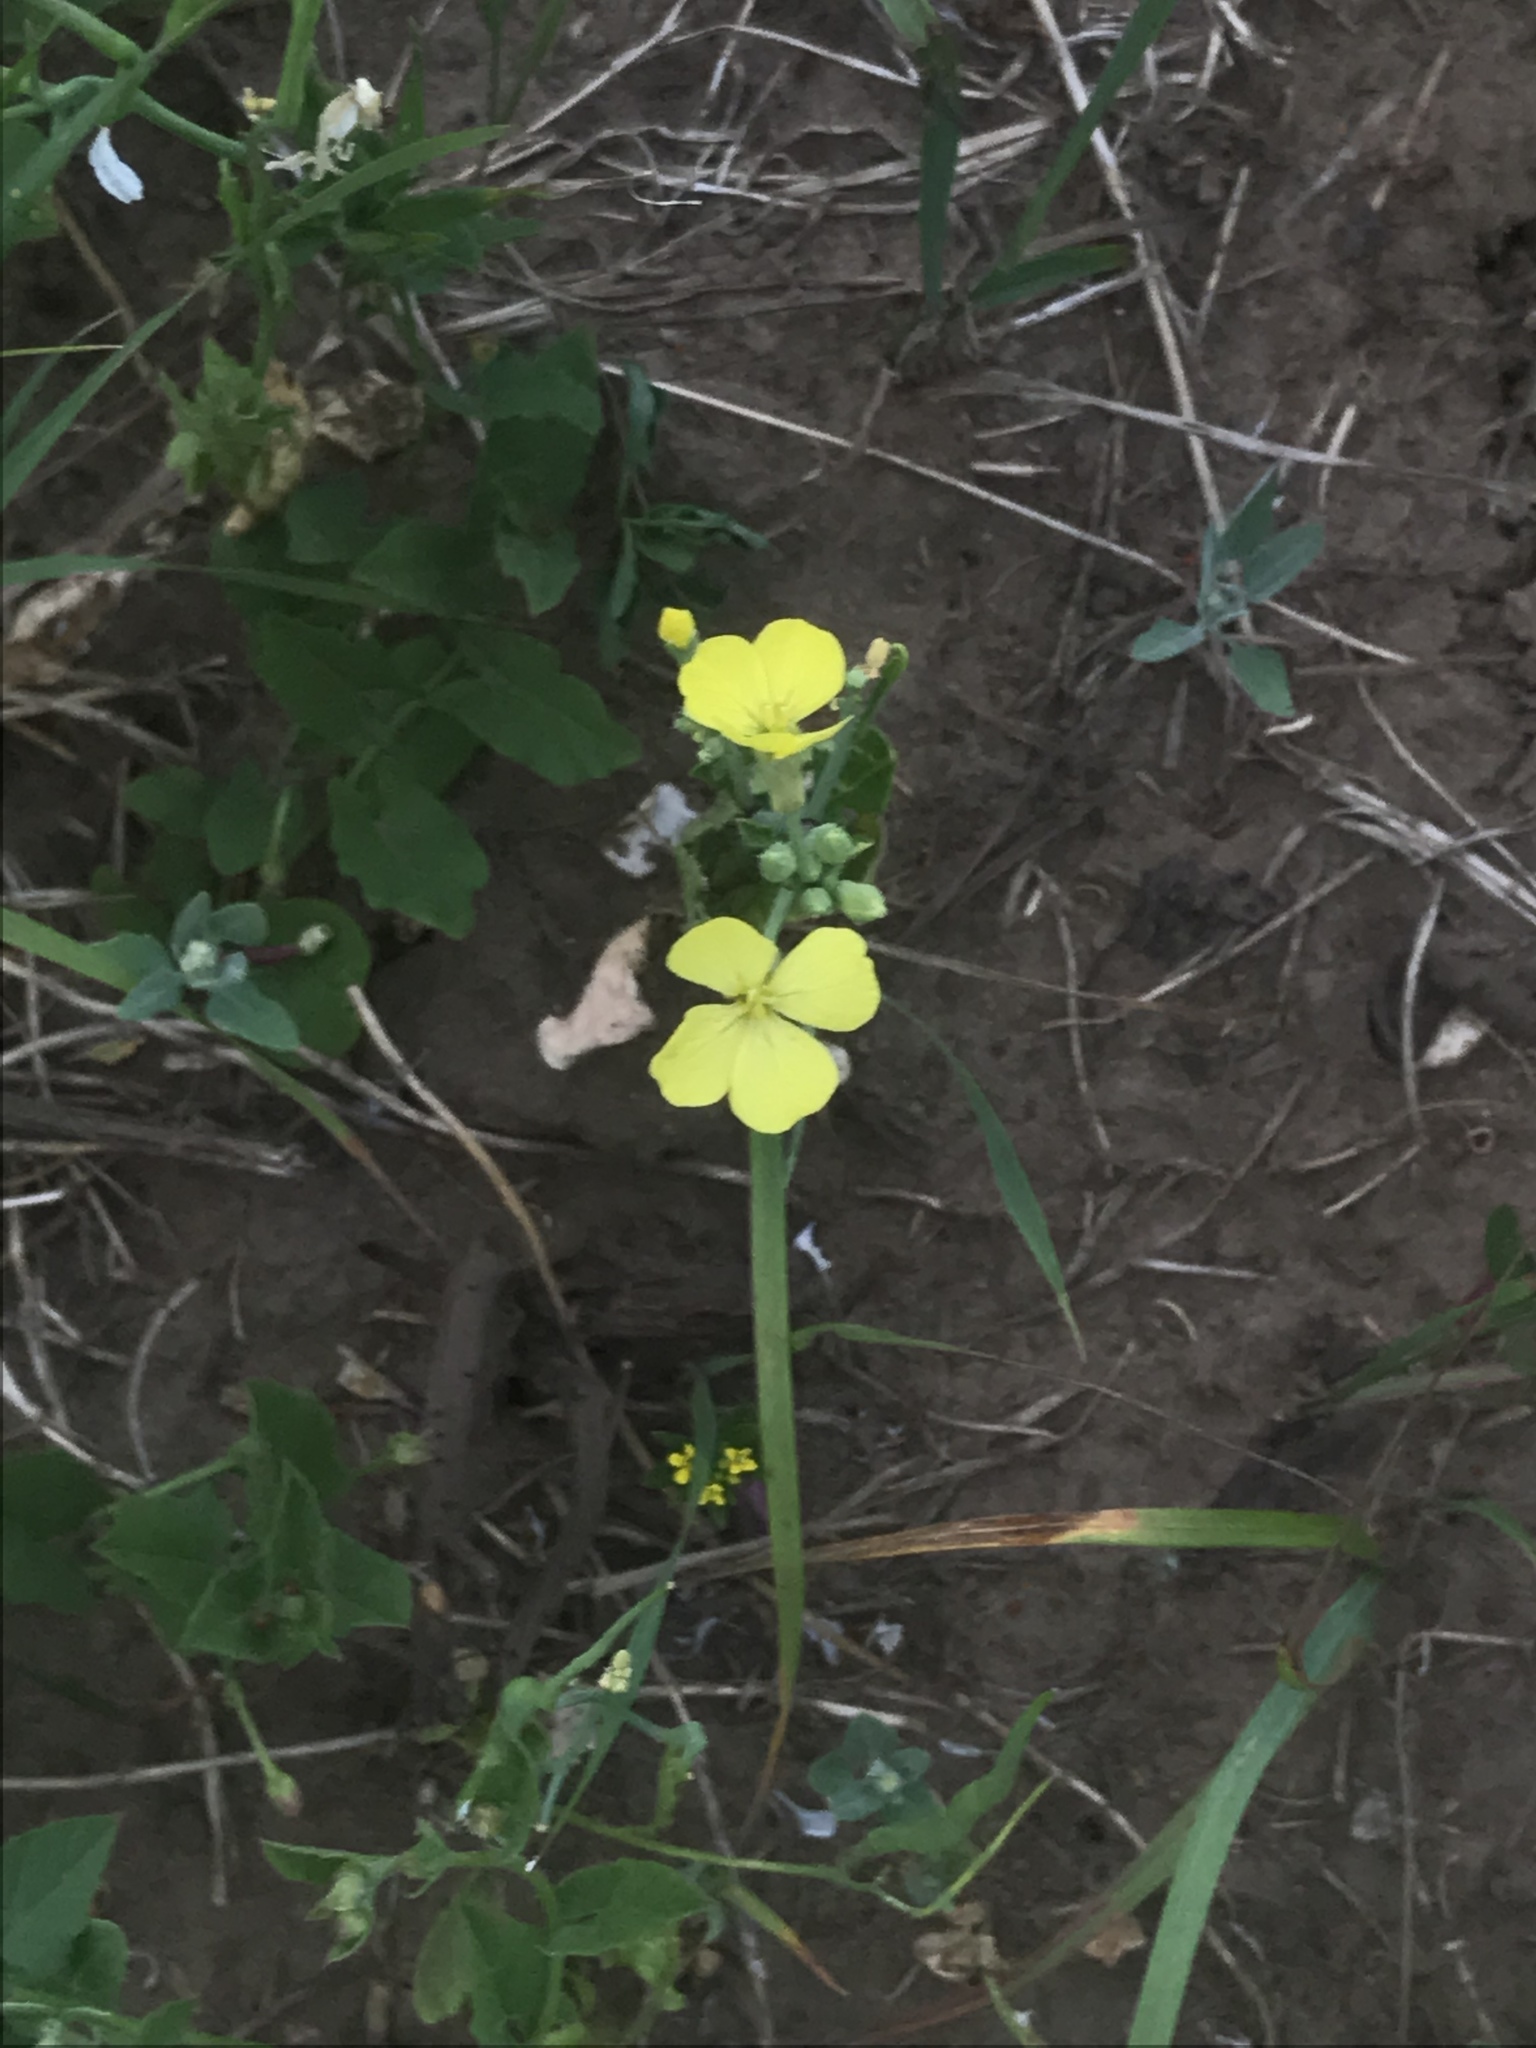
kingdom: Plantae
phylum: Tracheophyta
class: Magnoliopsida
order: Brassicales
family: Brassicaceae
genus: Raphanus
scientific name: Raphanus raphanistrum
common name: Wild radish
